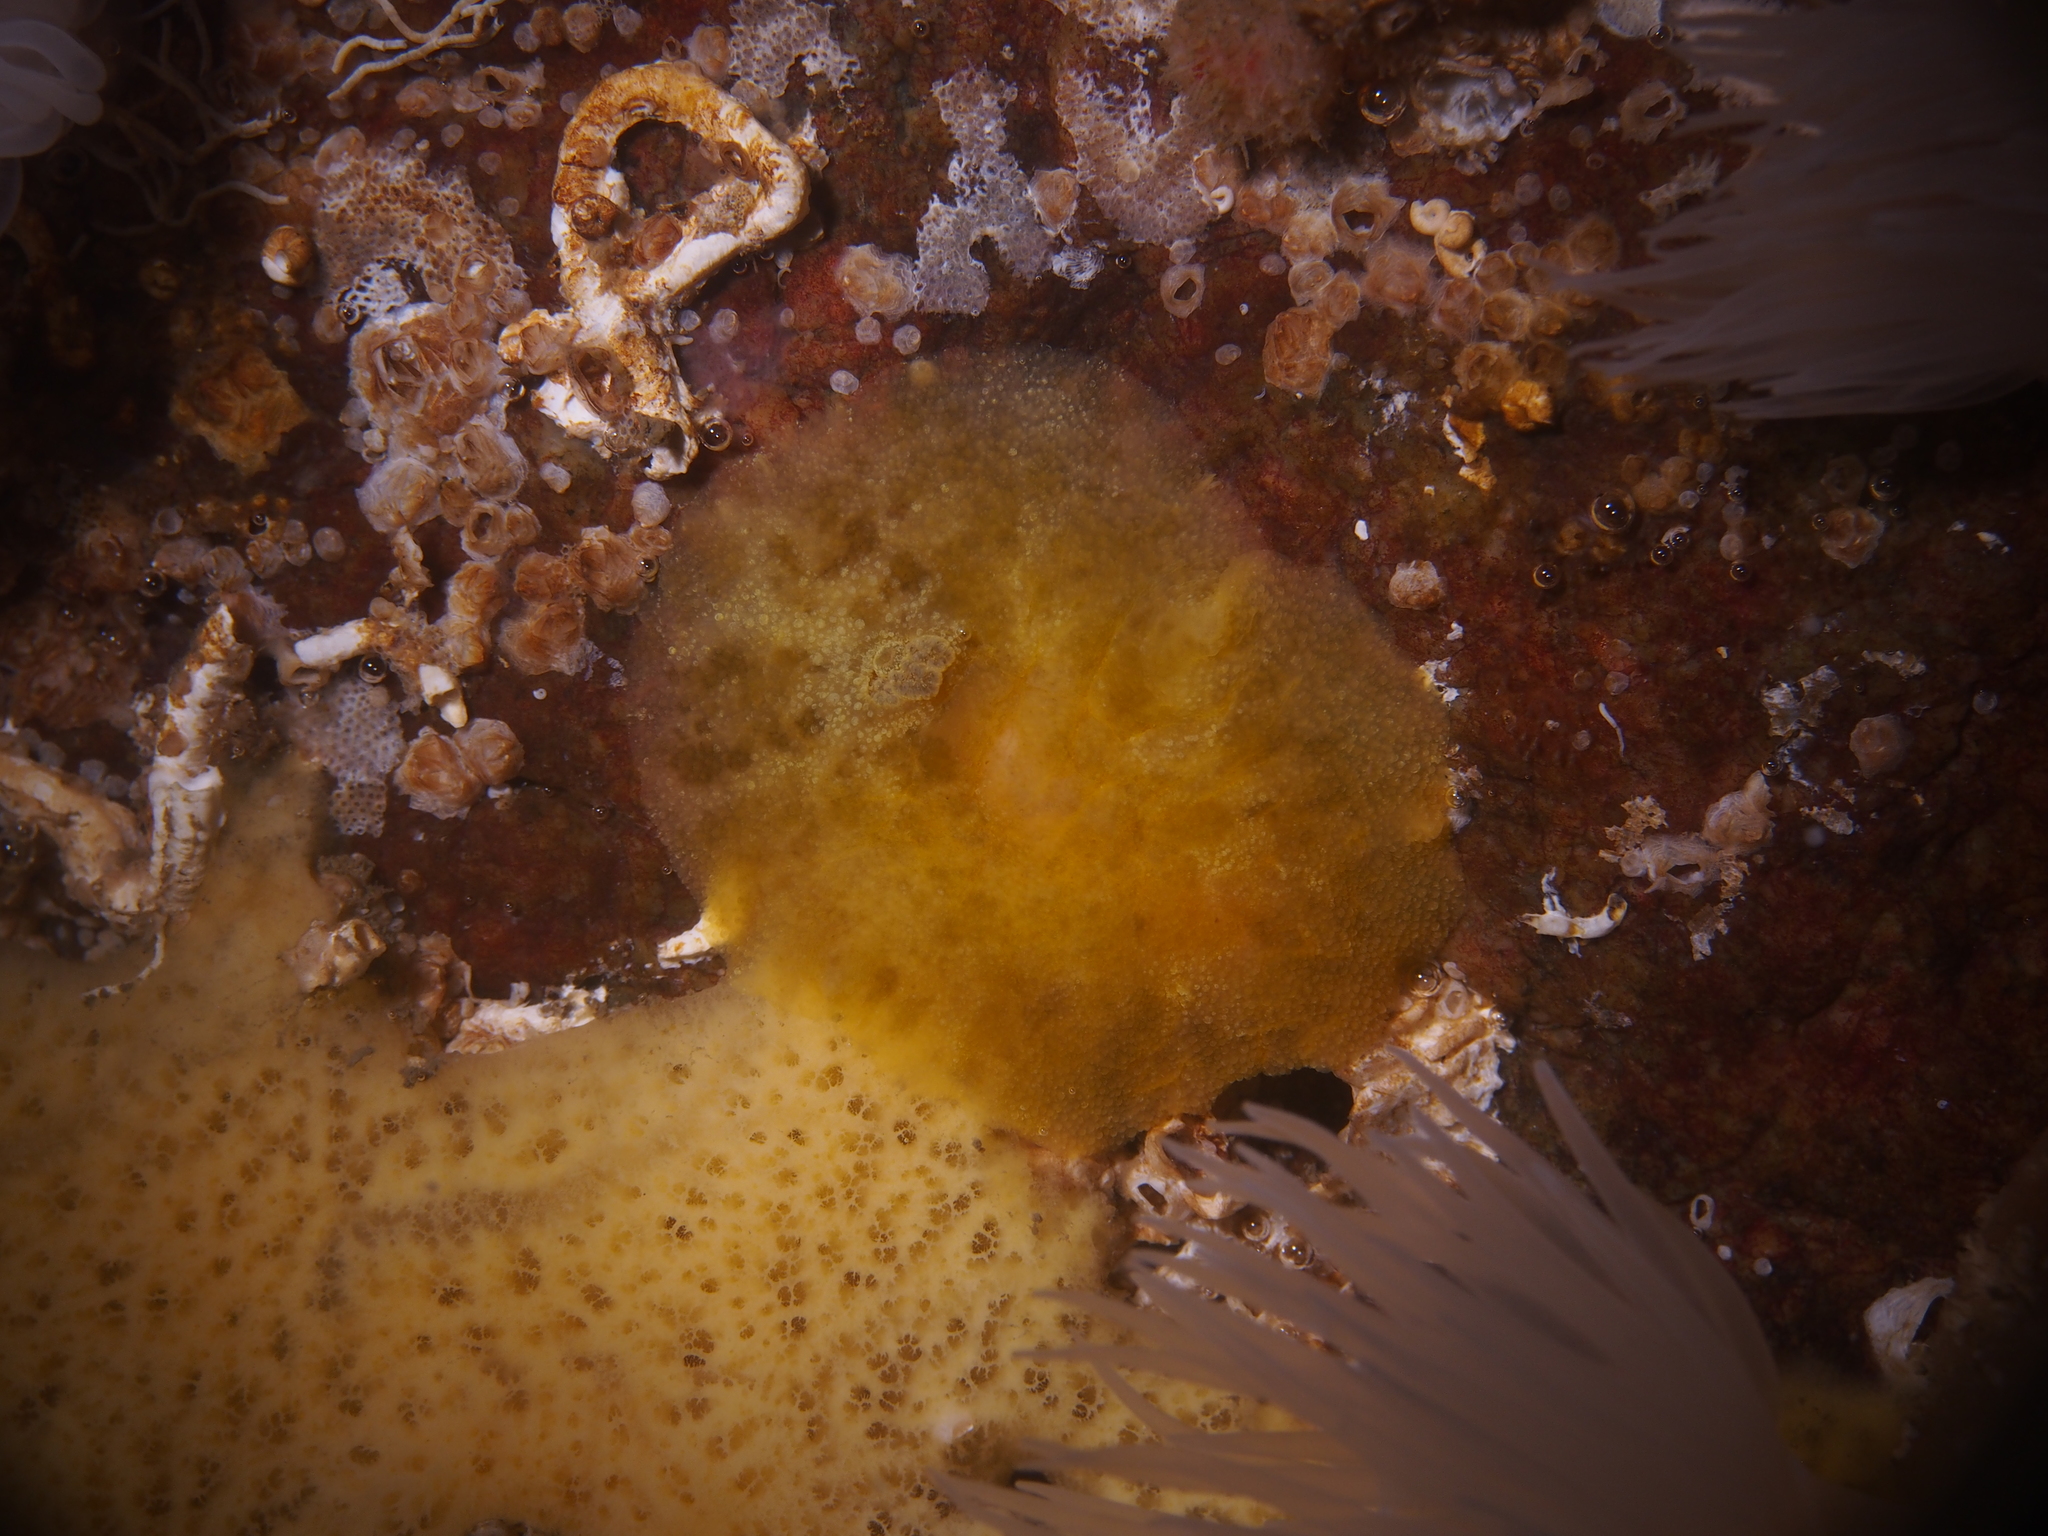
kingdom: Animalia
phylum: Mollusca
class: Gastropoda
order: Nudibranchia
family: Dorididae
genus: Doris
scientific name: Doris pseudoargus
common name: Sea lemon
